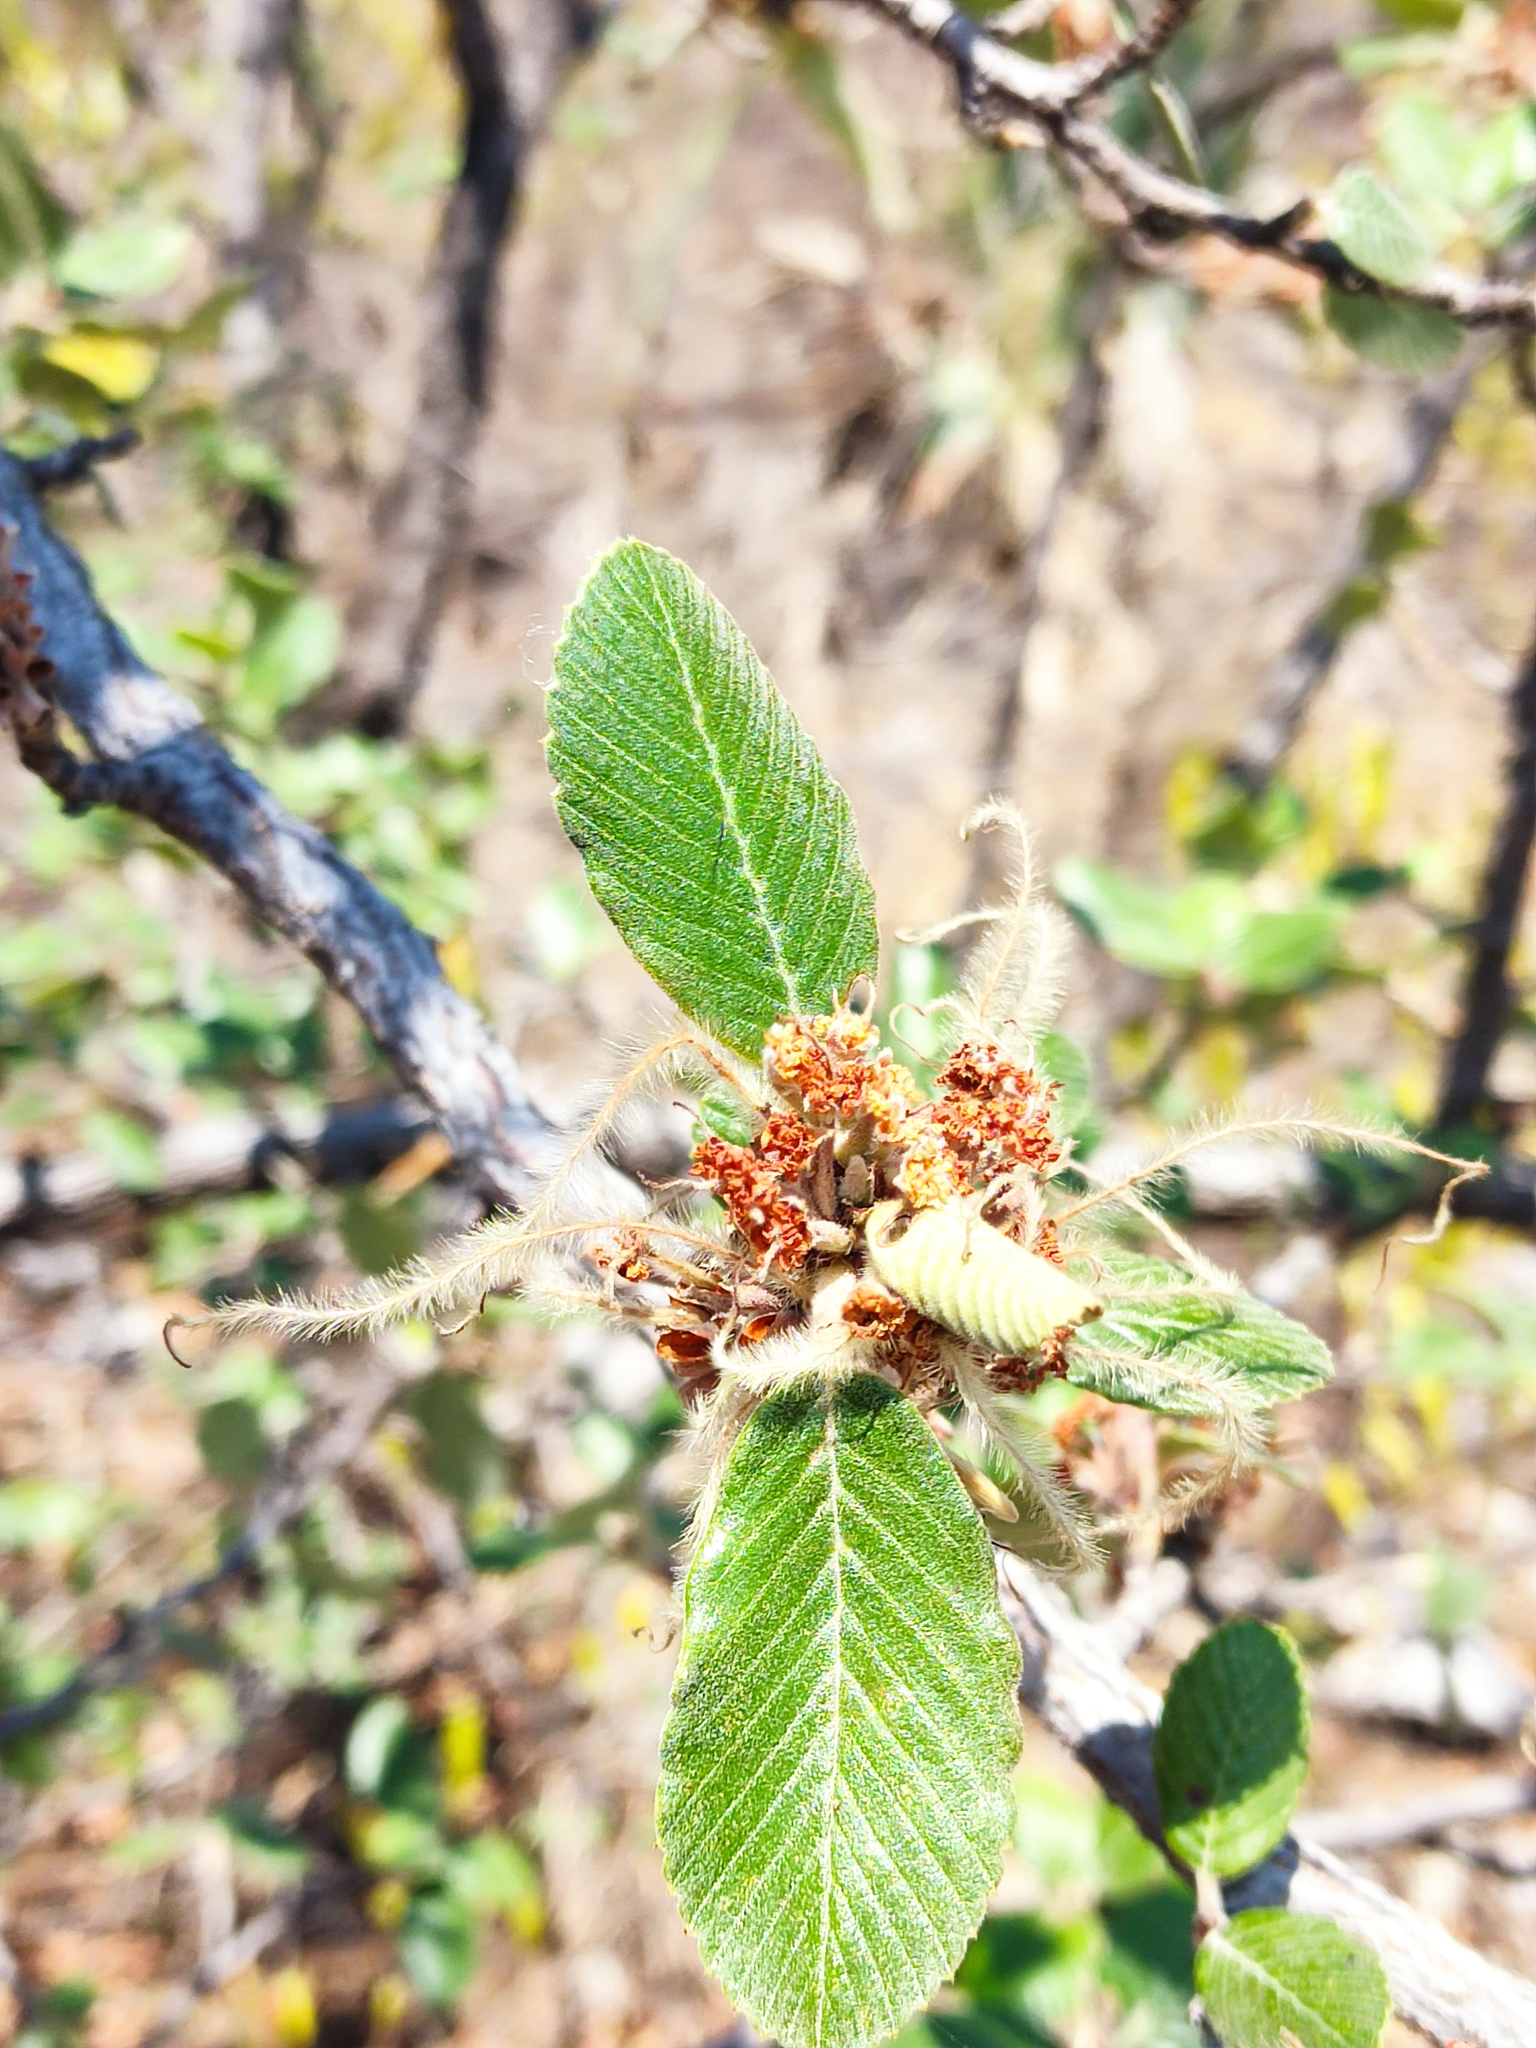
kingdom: Plantae
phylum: Tracheophyta
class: Magnoliopsida
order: Rosales
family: Rosaceae
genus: Cercocarpus
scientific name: Cercocarpus macrophyllus
